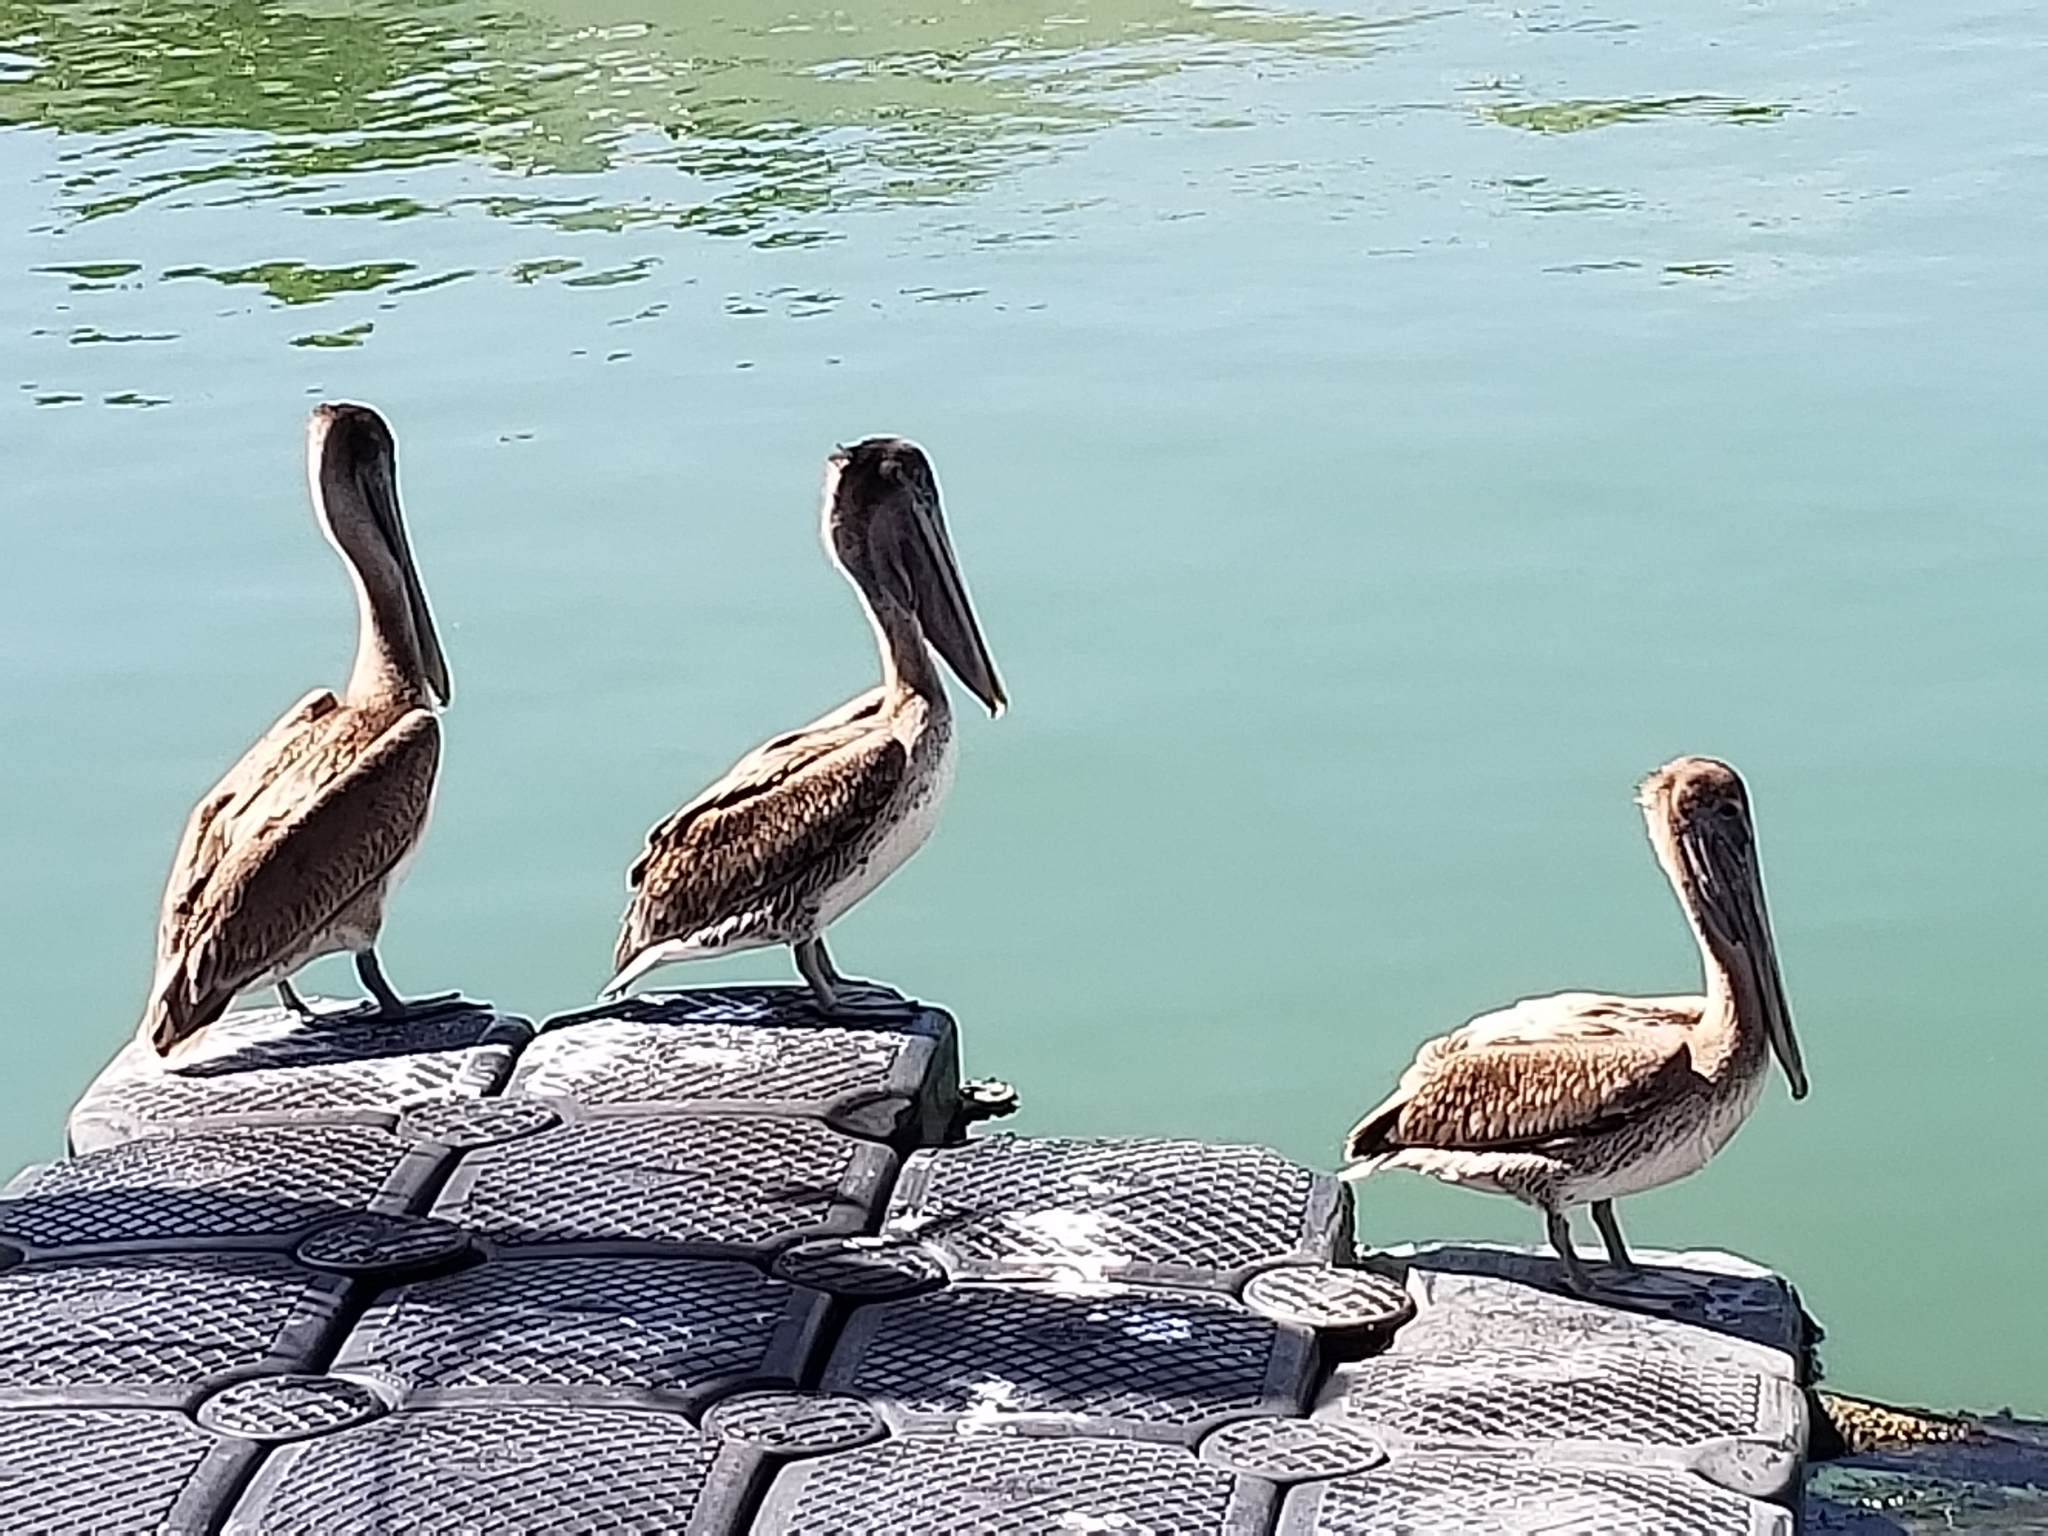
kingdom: Animalia
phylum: Chordata
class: Aves
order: Pelecaniformes
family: Pelecanidae
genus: Pelecanus
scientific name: Pelecanus occidentalis
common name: Brown pelican
